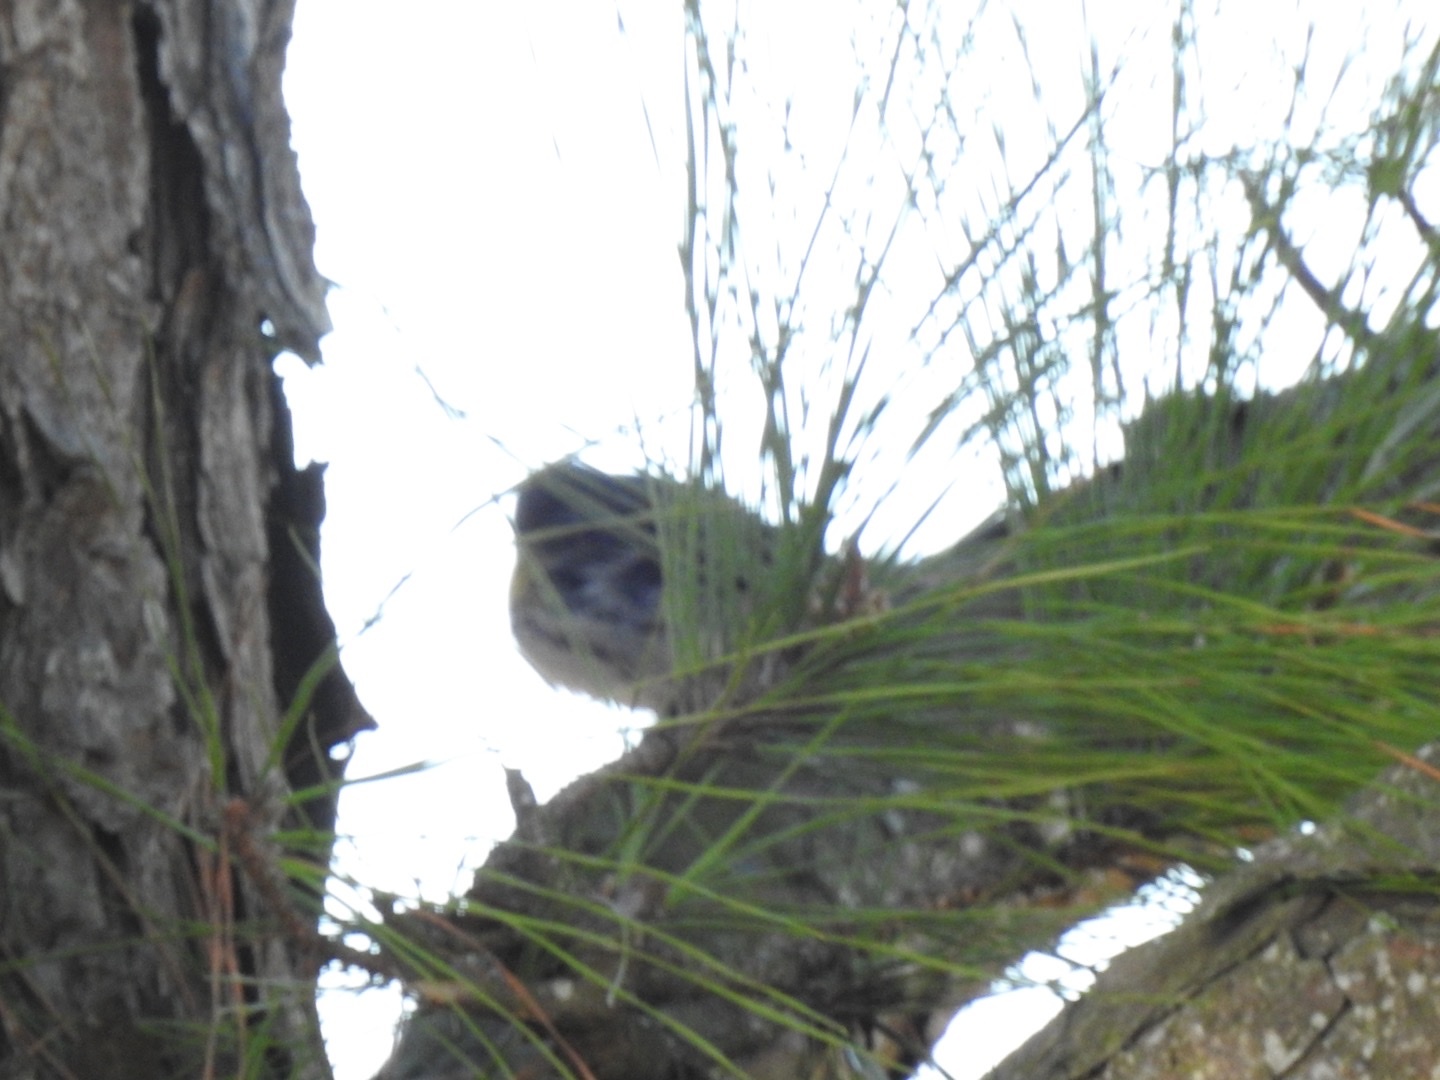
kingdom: Animalia
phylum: Chordata
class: Aves
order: Passeriformes
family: Parulidae
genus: Setophaga
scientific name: Setophaga coronata
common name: Myrtle warbler
